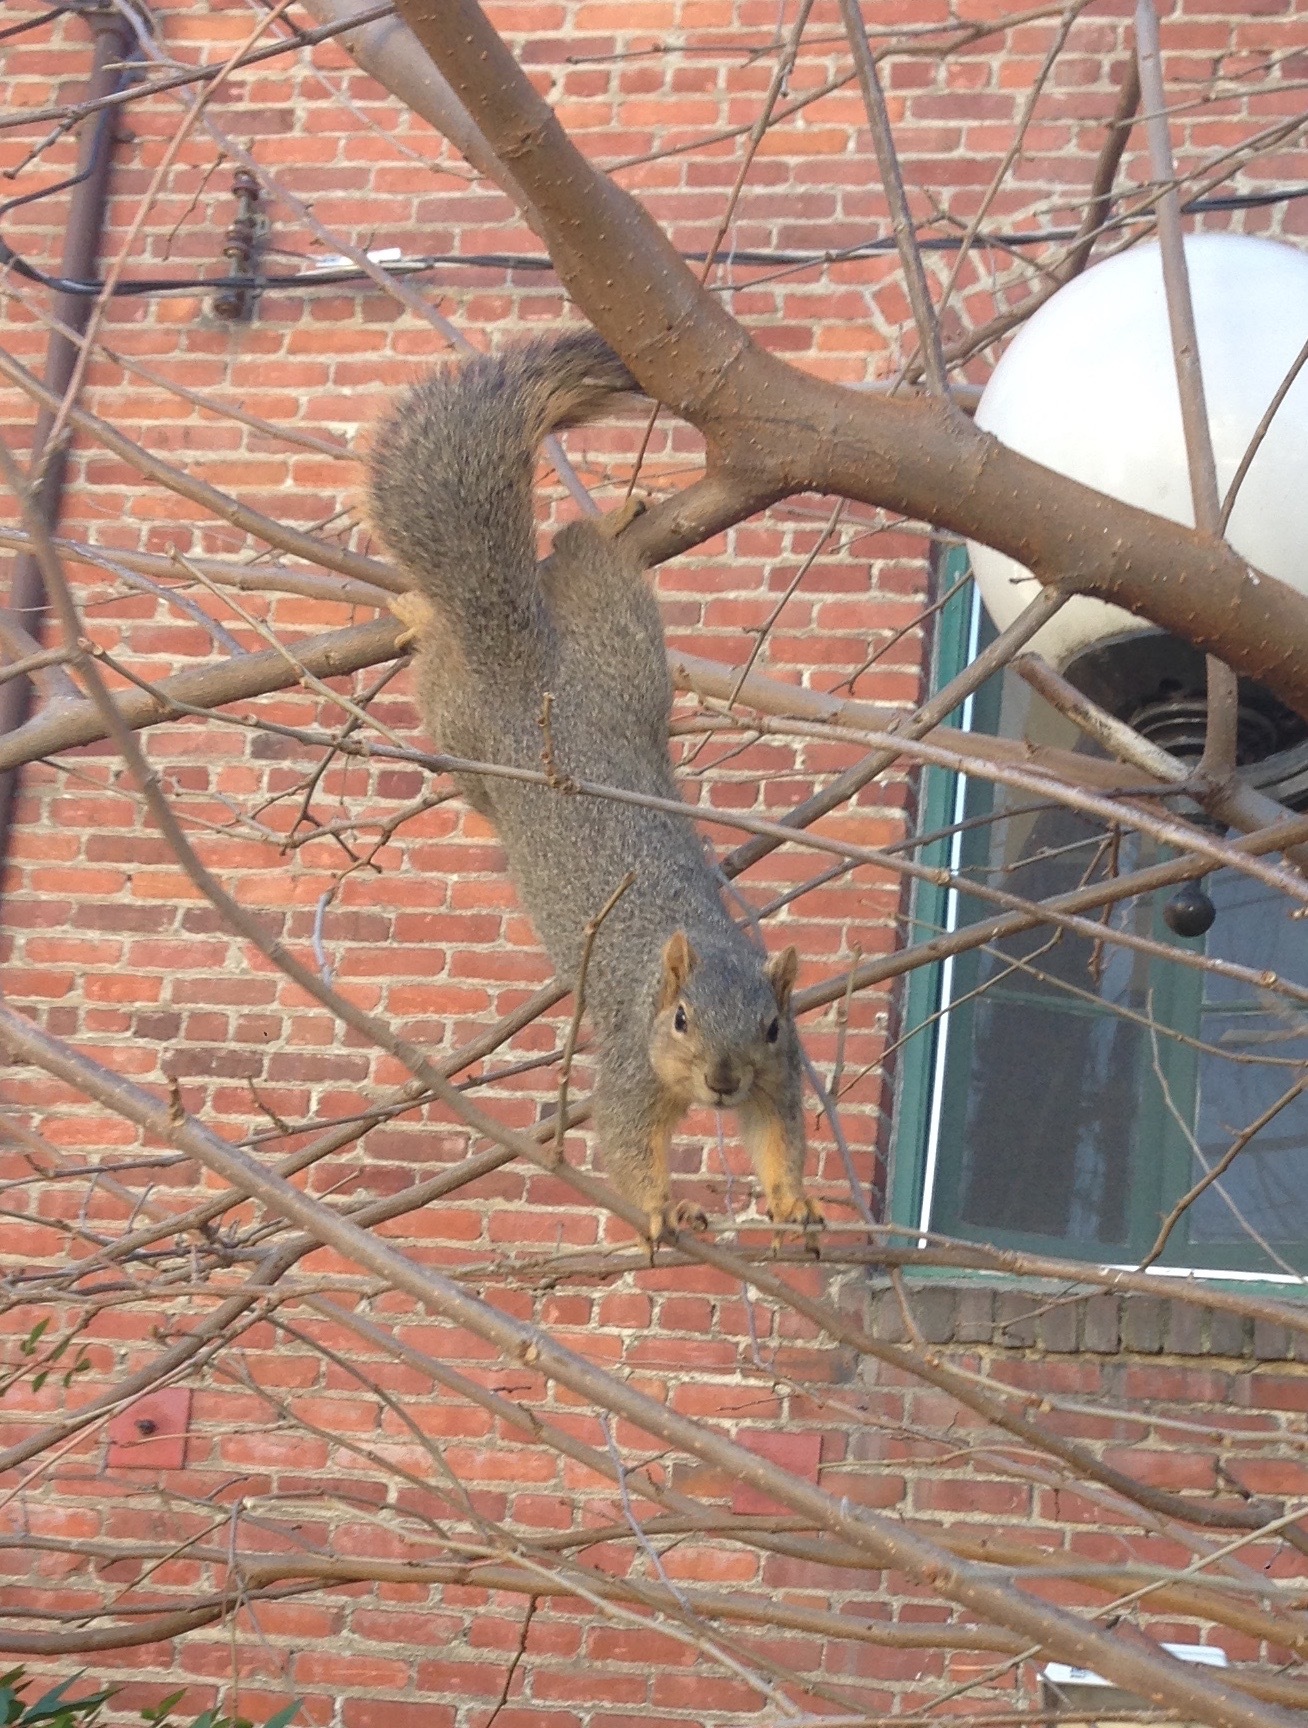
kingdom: Animalia
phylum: Chordata
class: Mammalia
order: Rodentia
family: Sciuridae
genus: Sciurus
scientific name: Sciurus niger
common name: Fox squirrel
